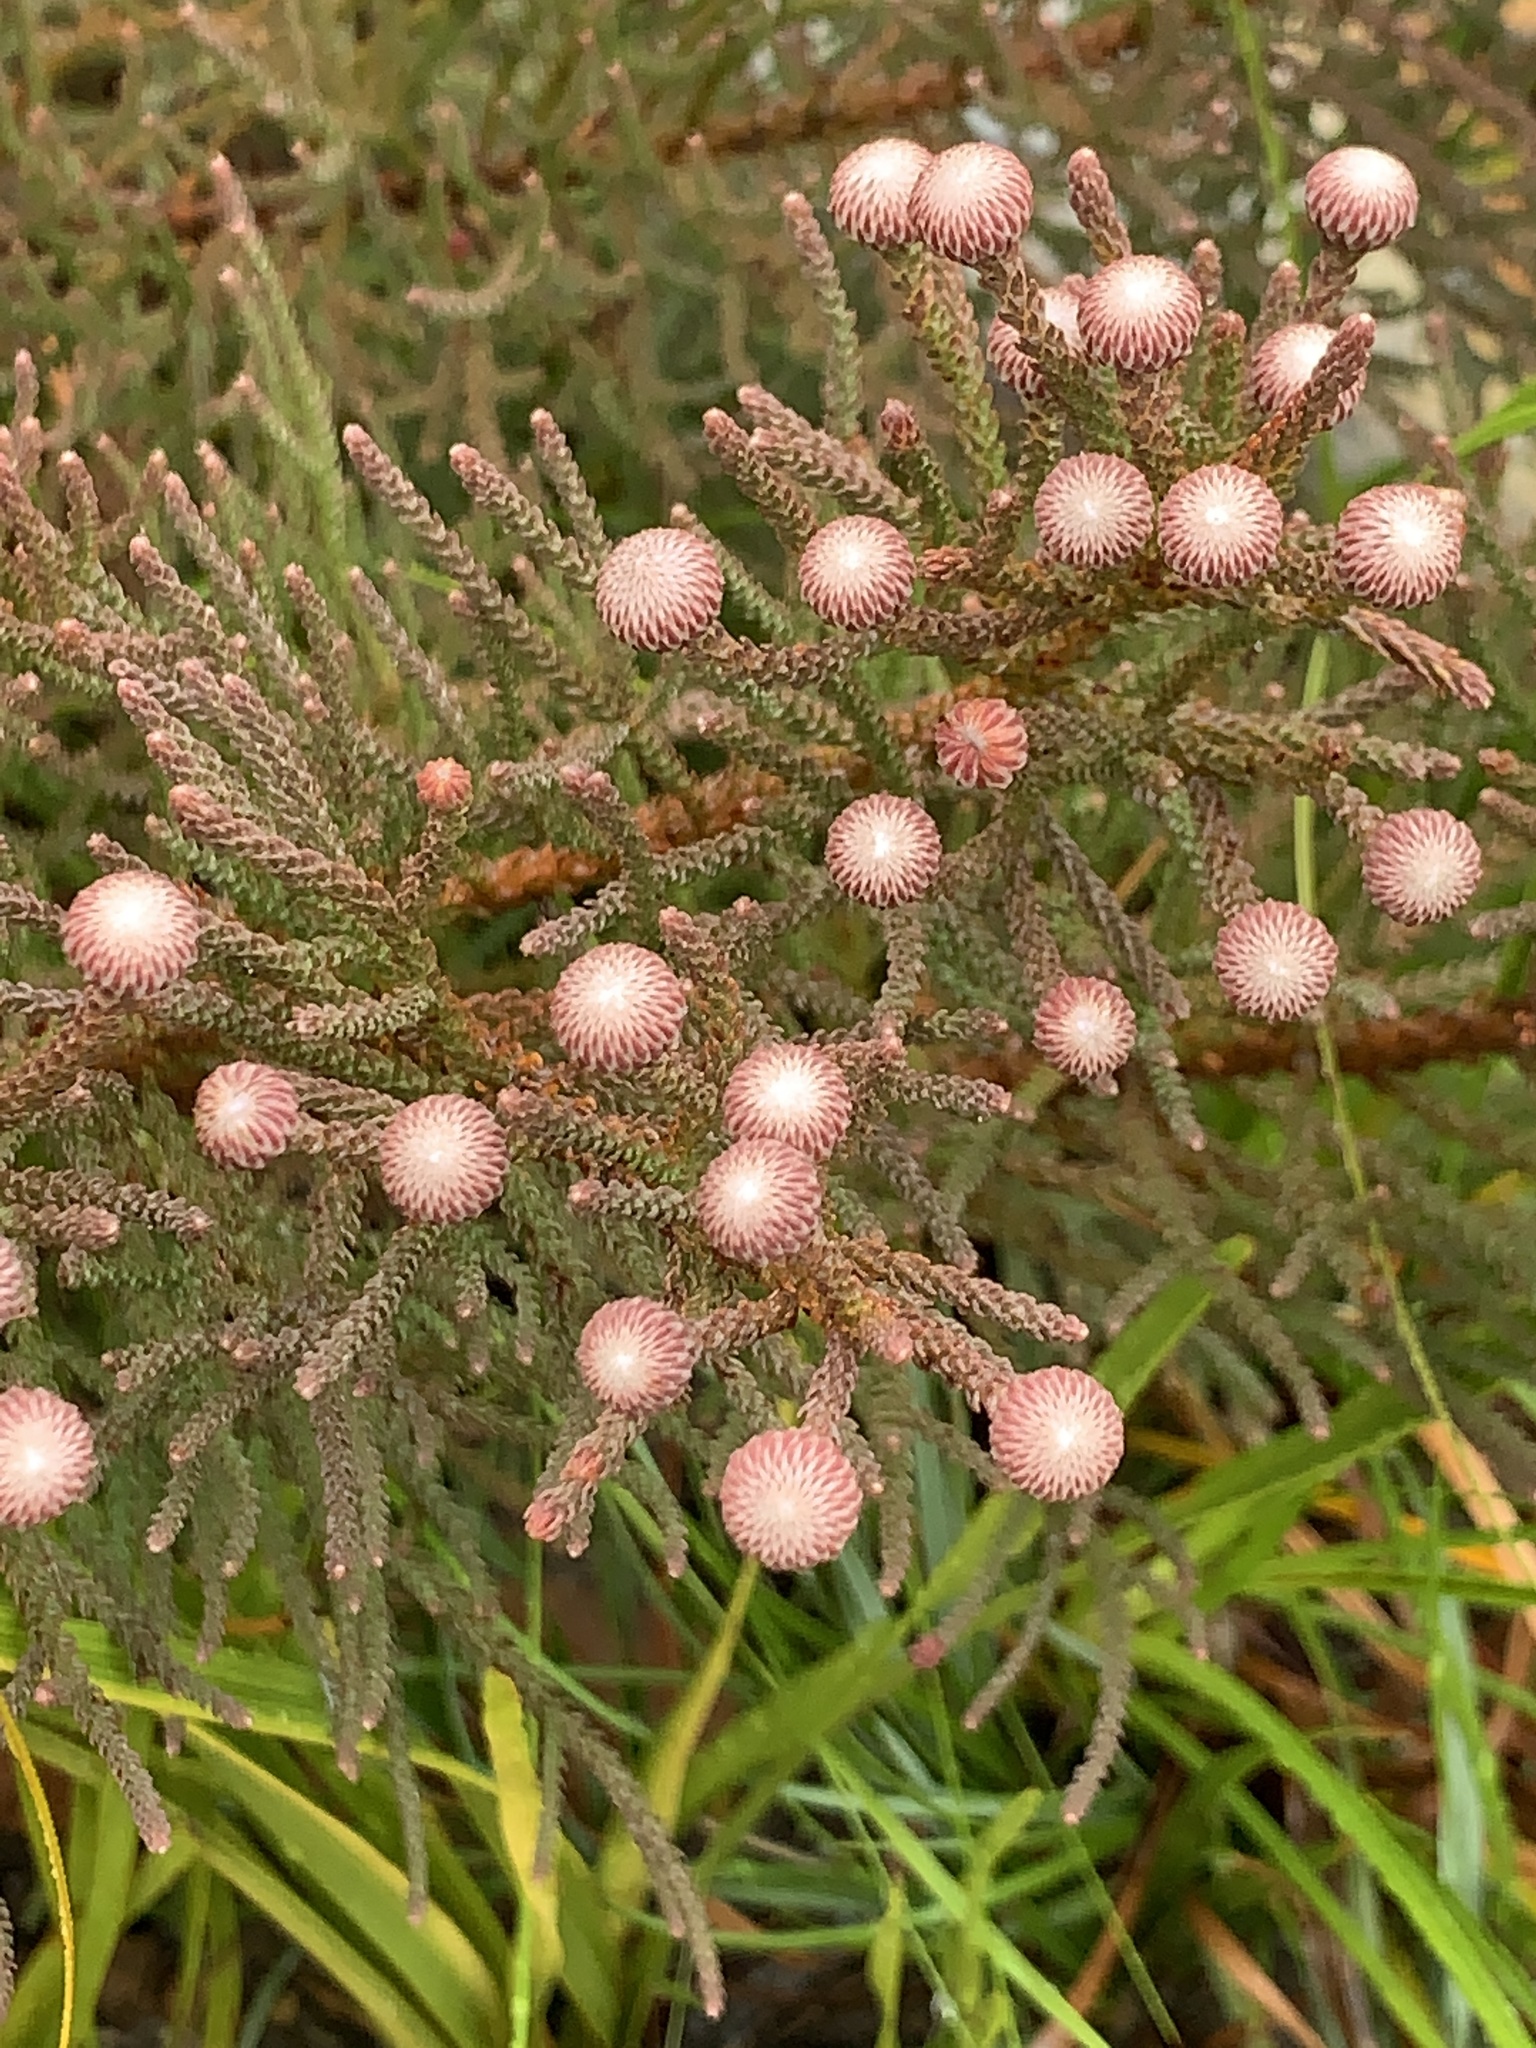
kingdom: Plantae
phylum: Tracheophyta
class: Magnoliopsida
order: Bruniales
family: Bruniaceae
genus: Brunia
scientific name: Brunia noduliflora
